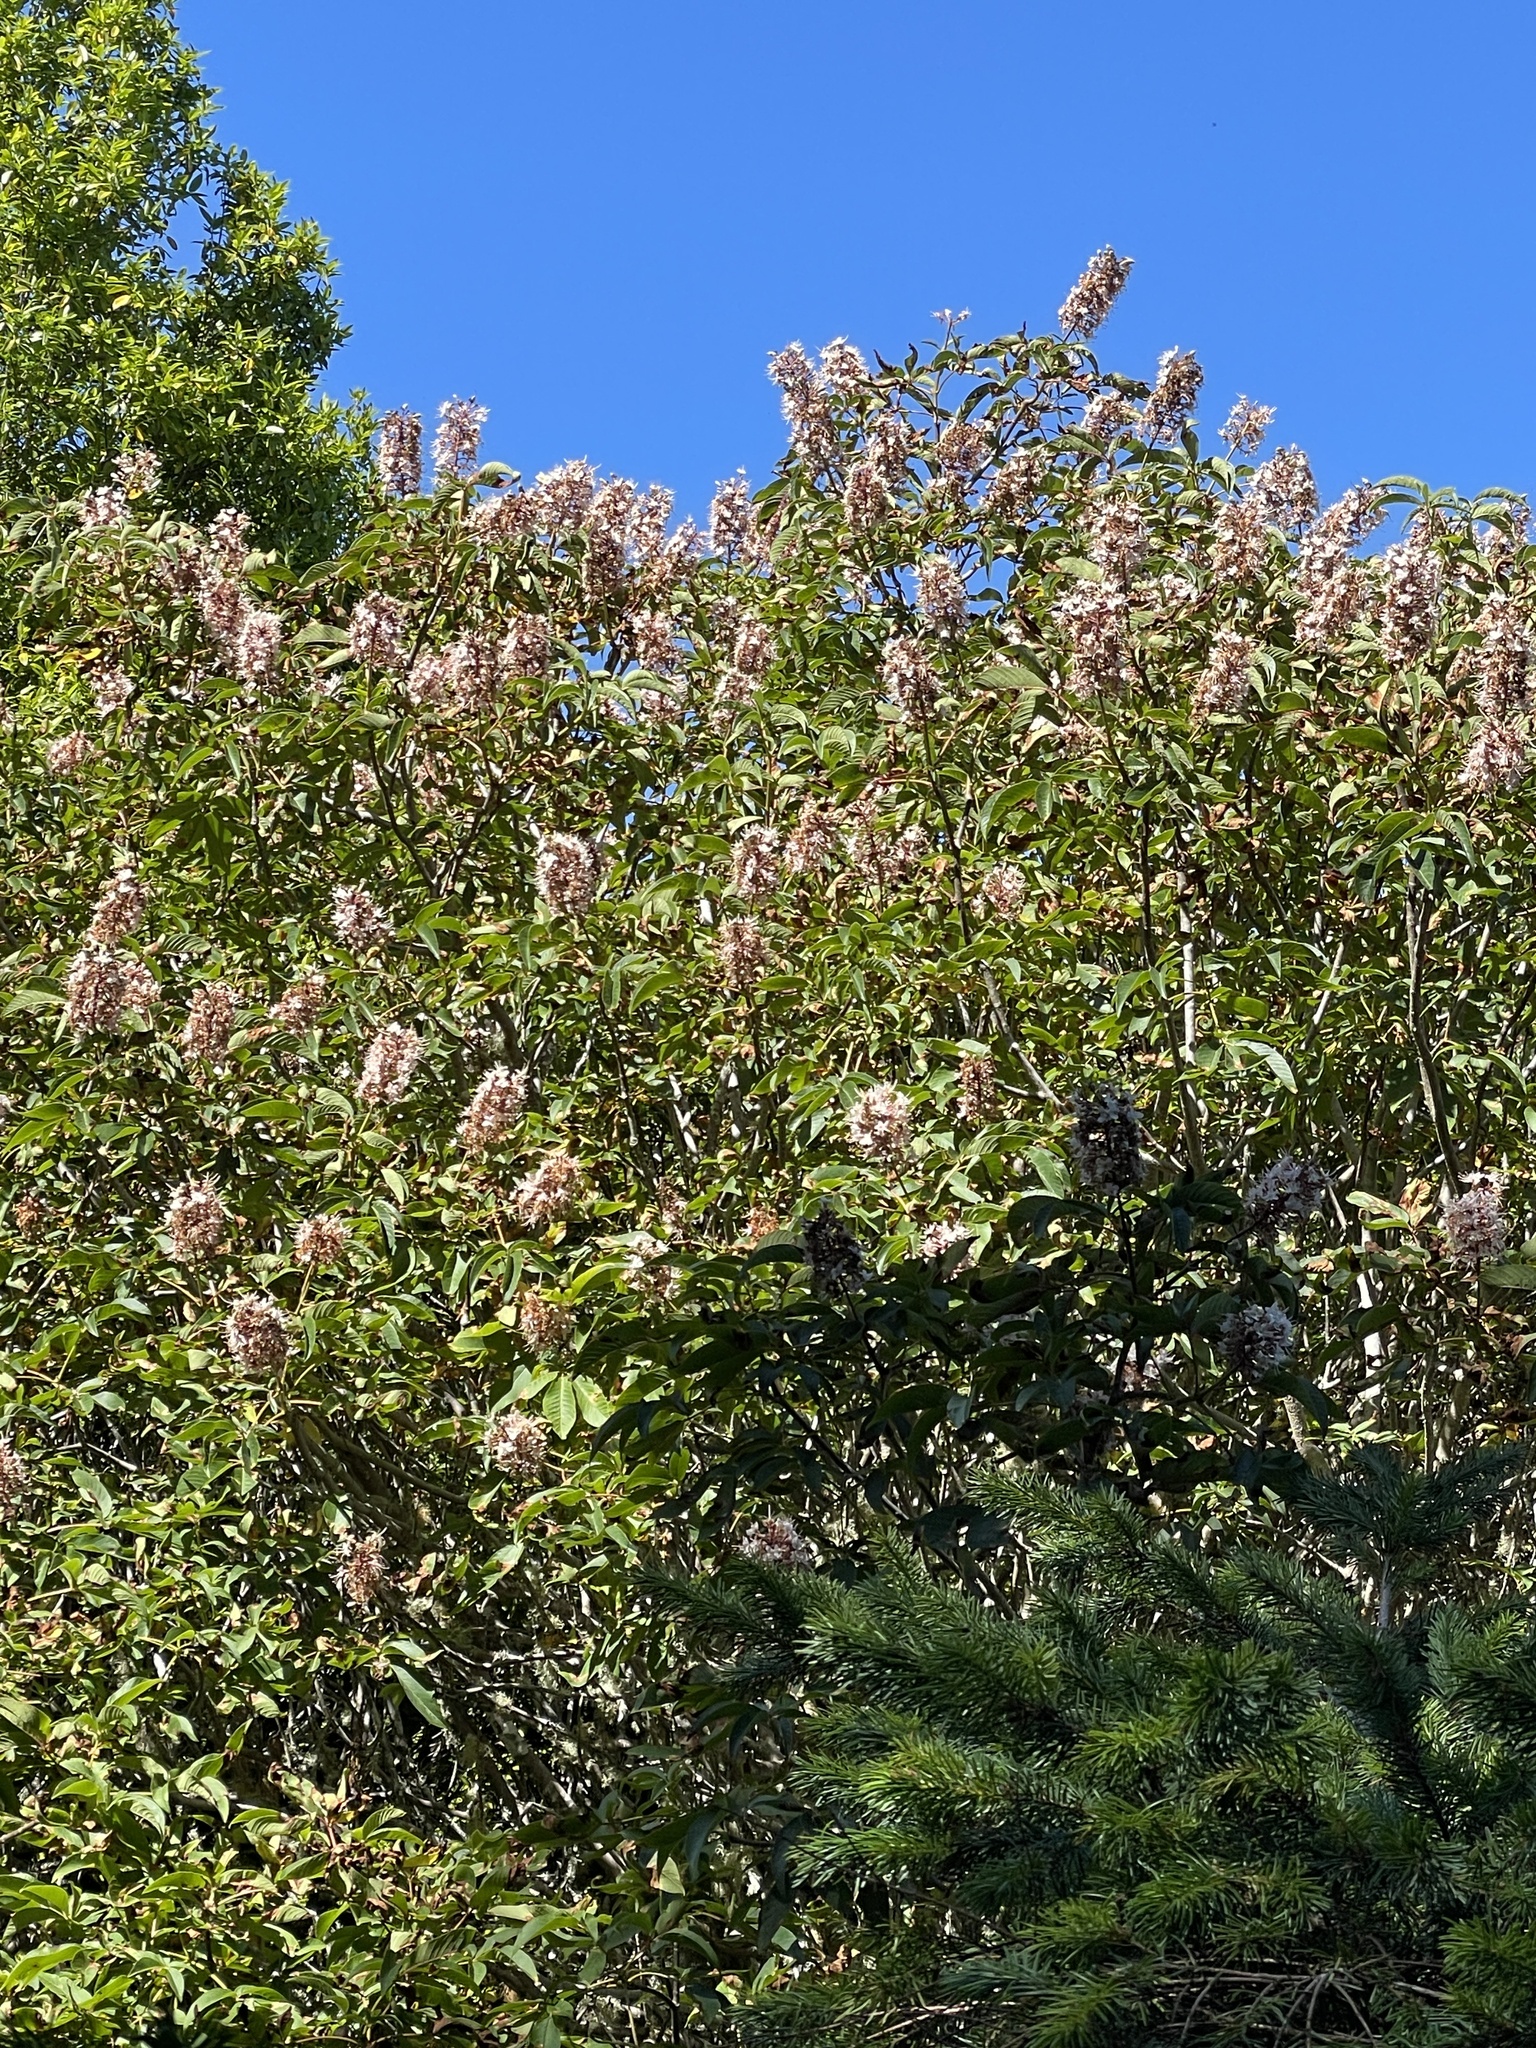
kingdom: Plantae
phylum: Tracheophyta
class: Magnoliopsida
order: Sapindales
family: Sapindaceae
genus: Aesculus
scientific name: Aesculus californica
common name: California buckeye
